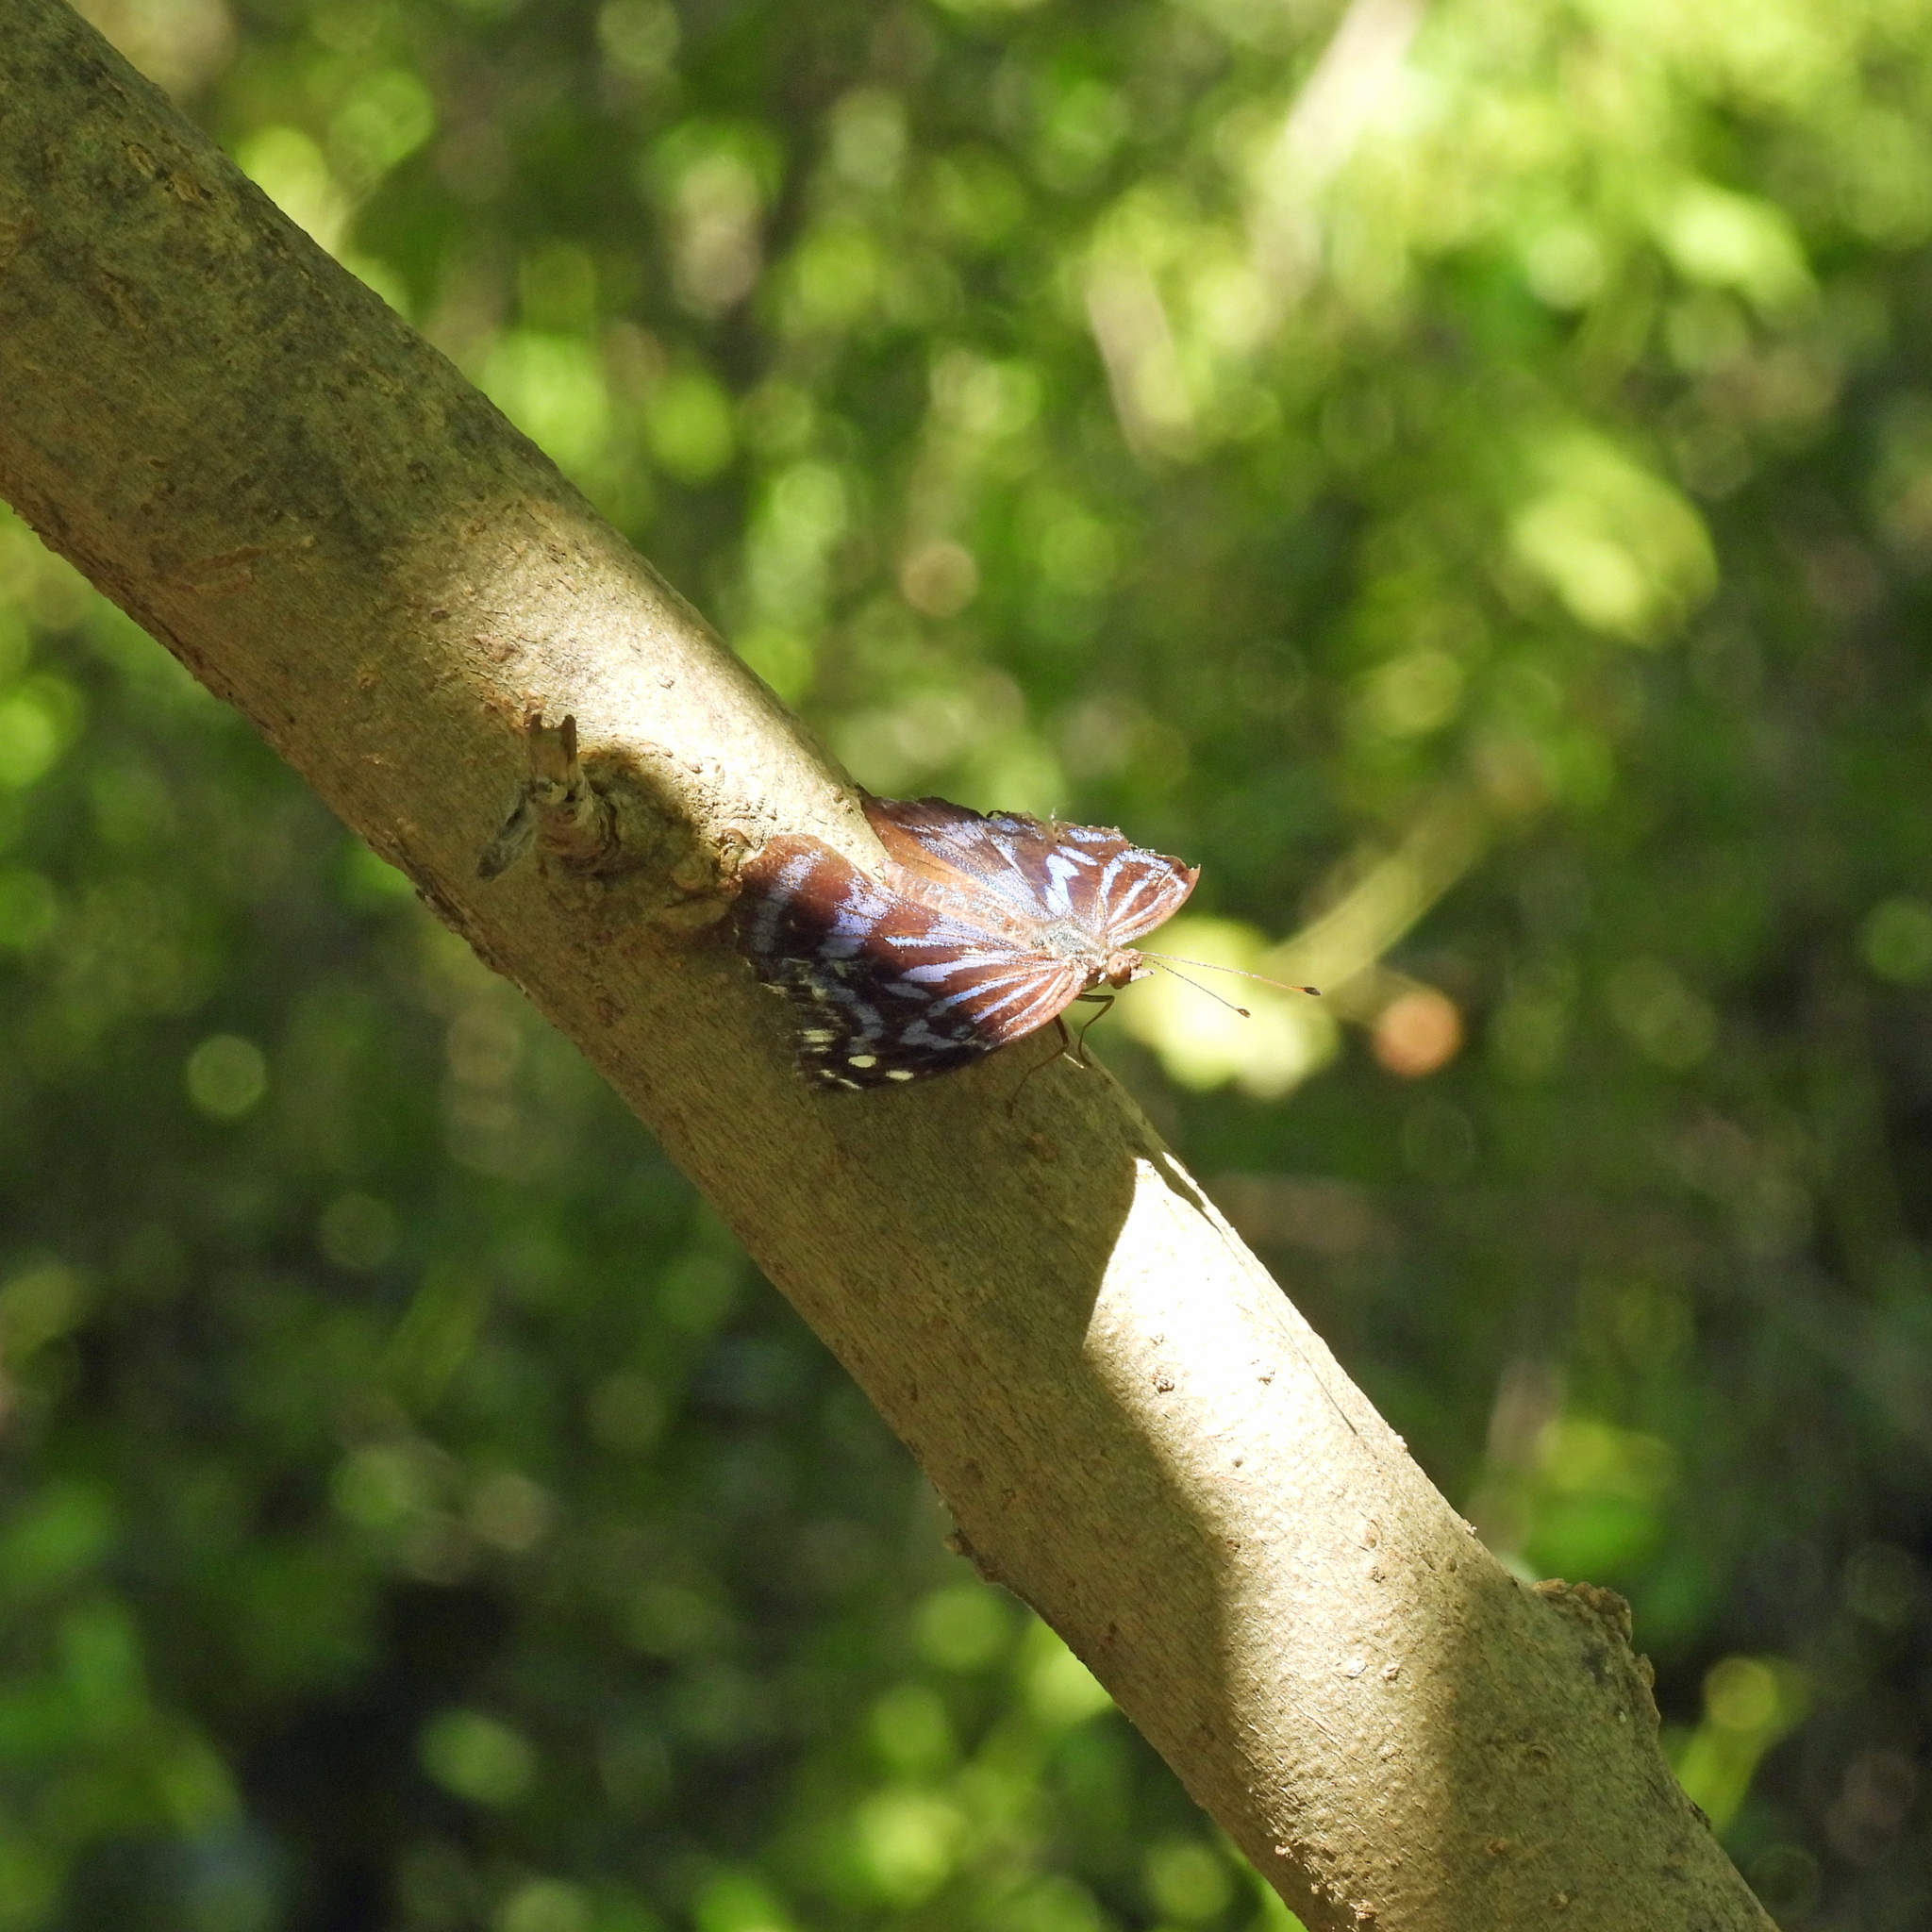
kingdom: Animalia
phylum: Arthropoda
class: Insecta
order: Lepidoptera
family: Nymphalidae
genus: Myscelia
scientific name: Myscelia ethusa
